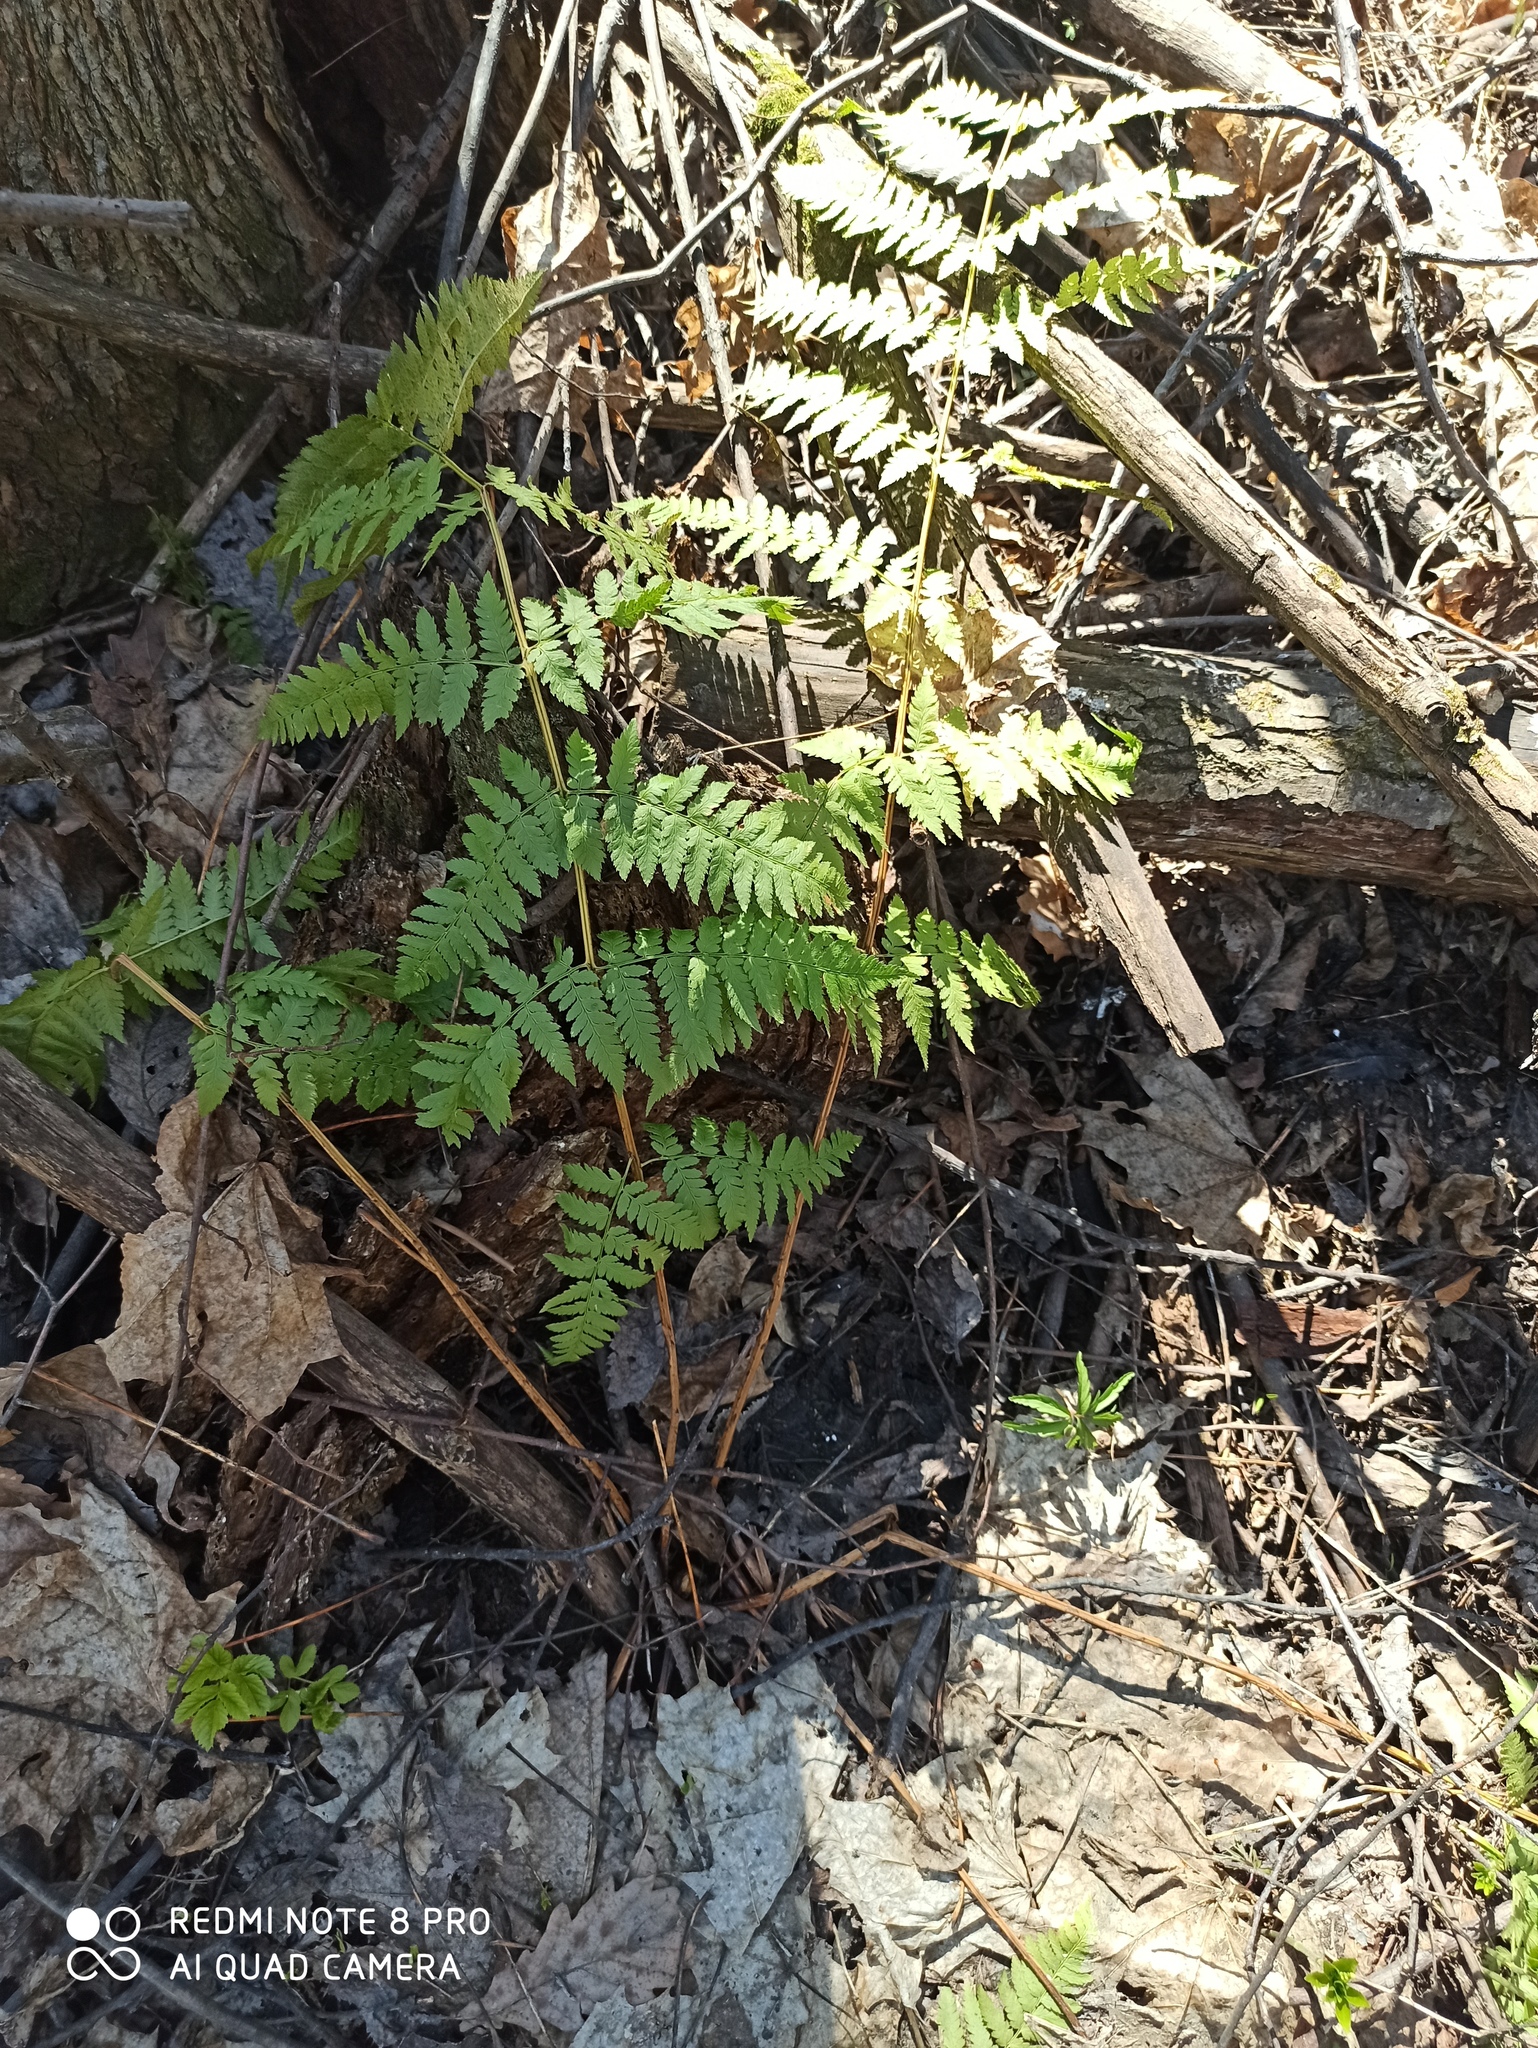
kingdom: Plantae
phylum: Tracheophyta
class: Polypodiopsida
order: Polypodiales
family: Dryopteridaceae
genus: Dryopteris
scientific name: Dryopteris carthusiana
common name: Narrow buckler-fern
